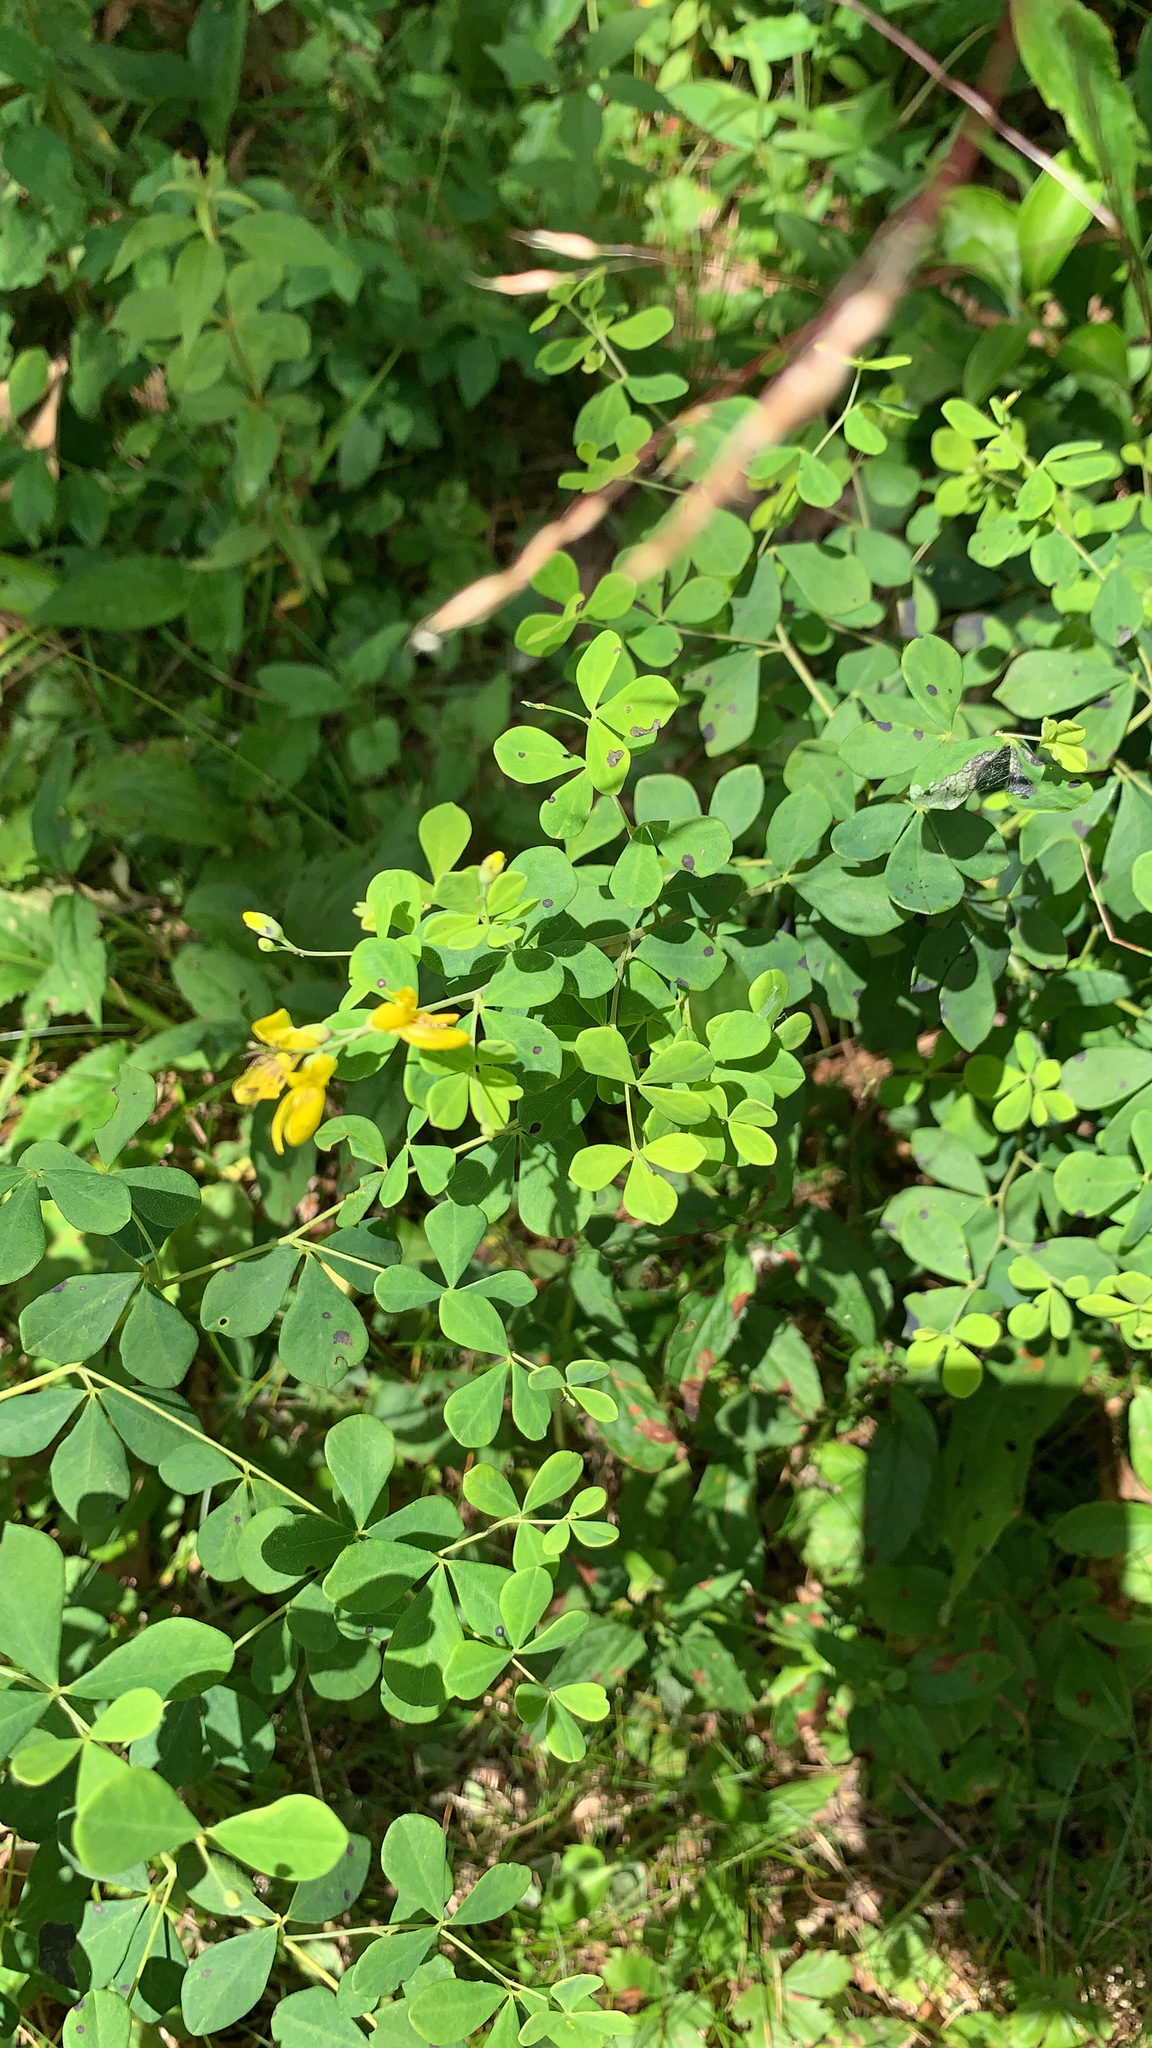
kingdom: Plantae
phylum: Tracheophyta
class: Magnoliopsida
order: Fabales
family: Fabaceae
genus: Baptisia
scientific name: Baptisia tinctoria
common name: Wild indigo
